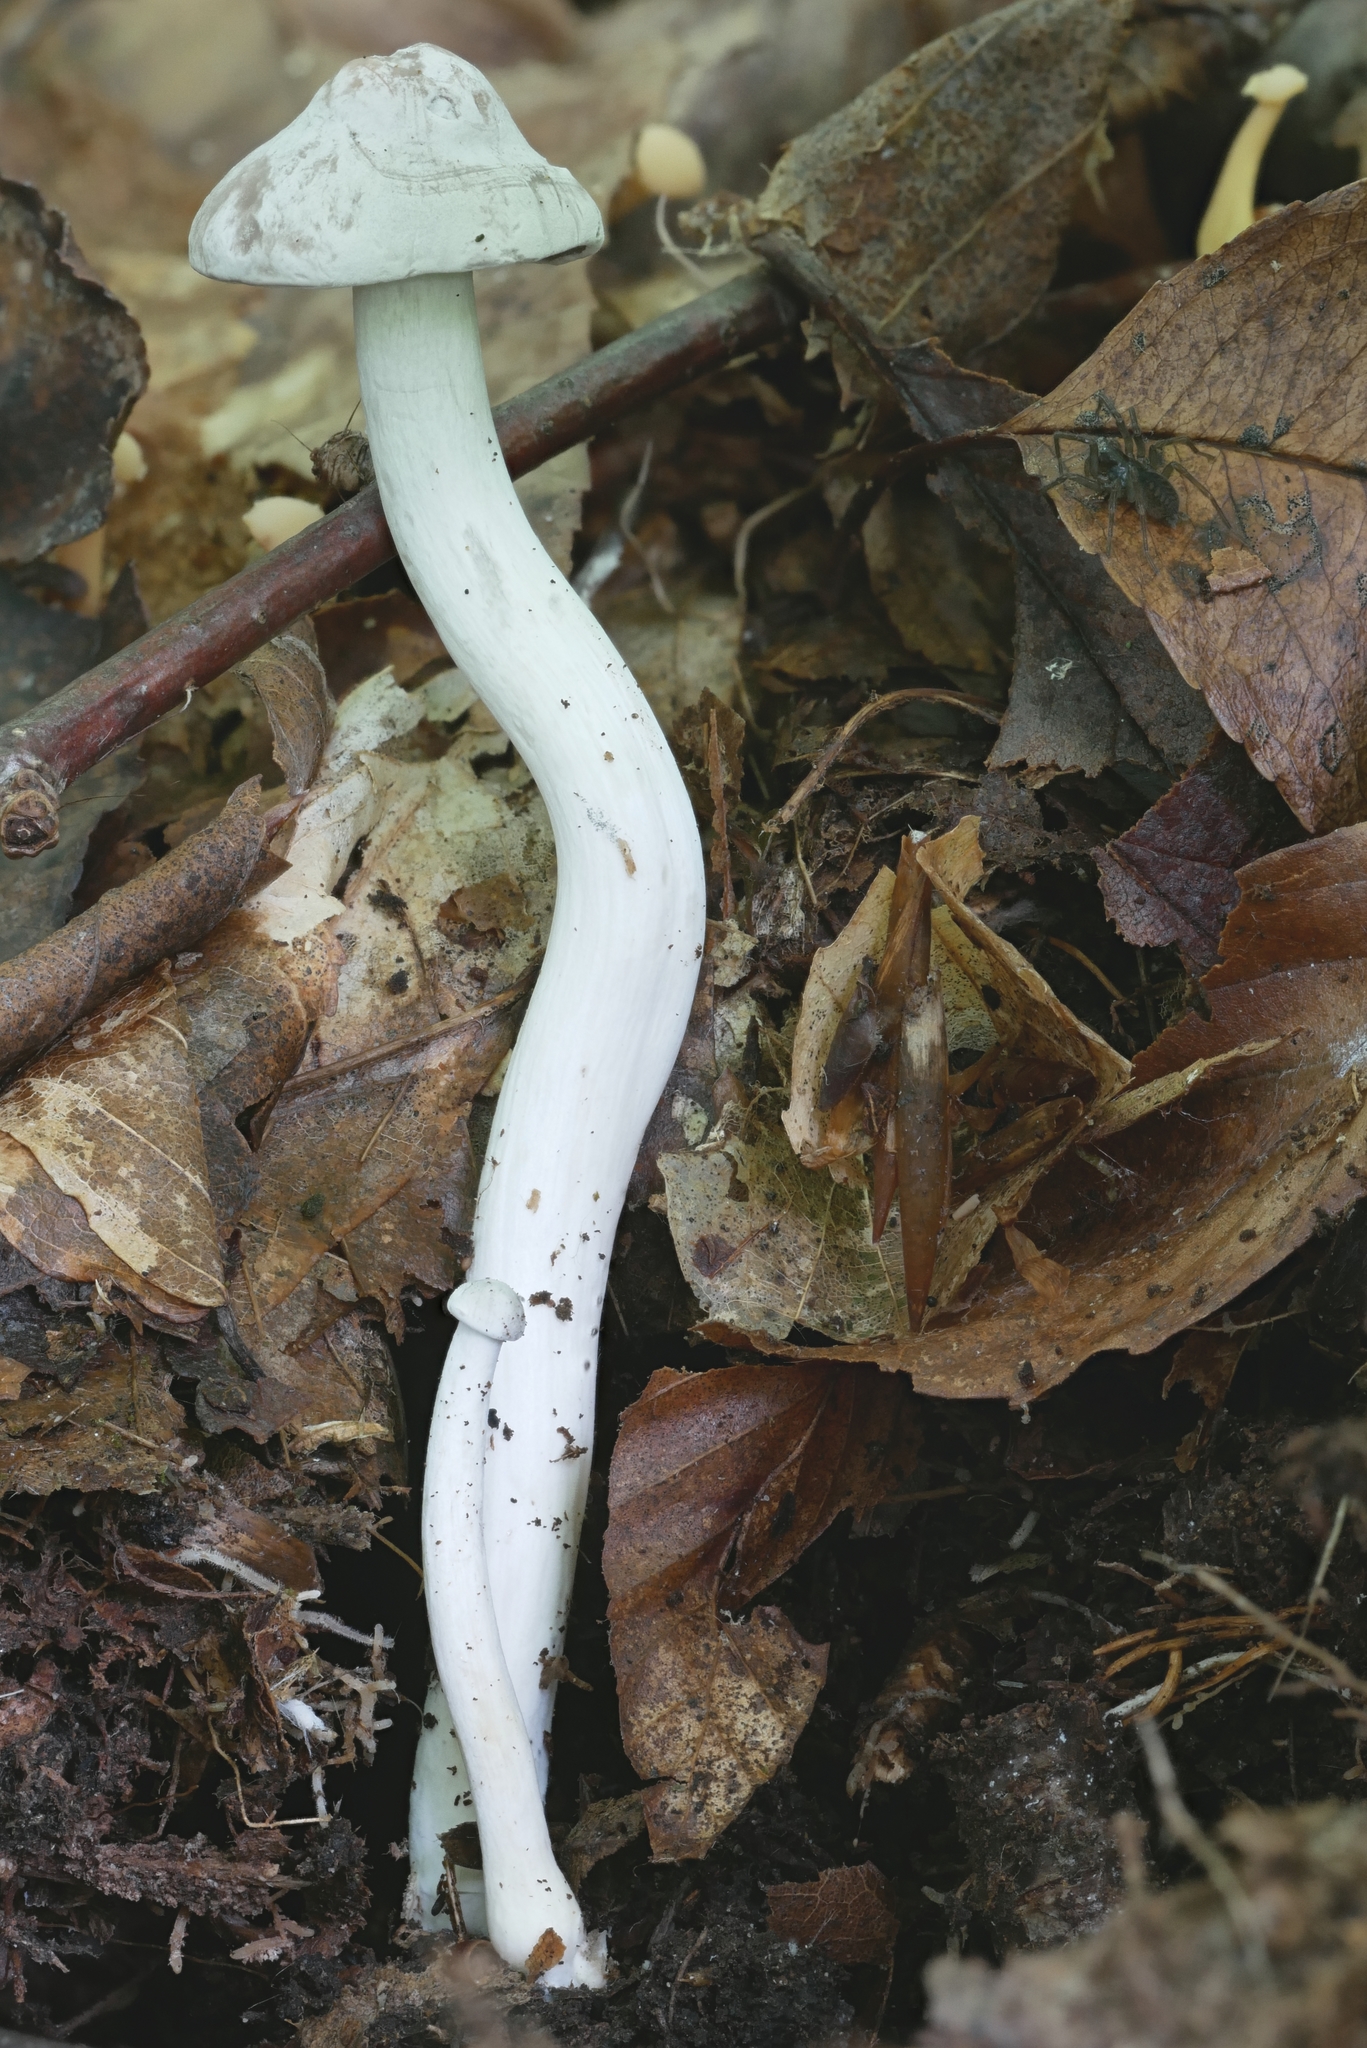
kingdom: Fungi
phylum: Basidiomycota
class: Agaricomycetes
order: Agaricales
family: Hygrophoraceae
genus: Cuphophyllus
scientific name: Cuphophyllus canescens
